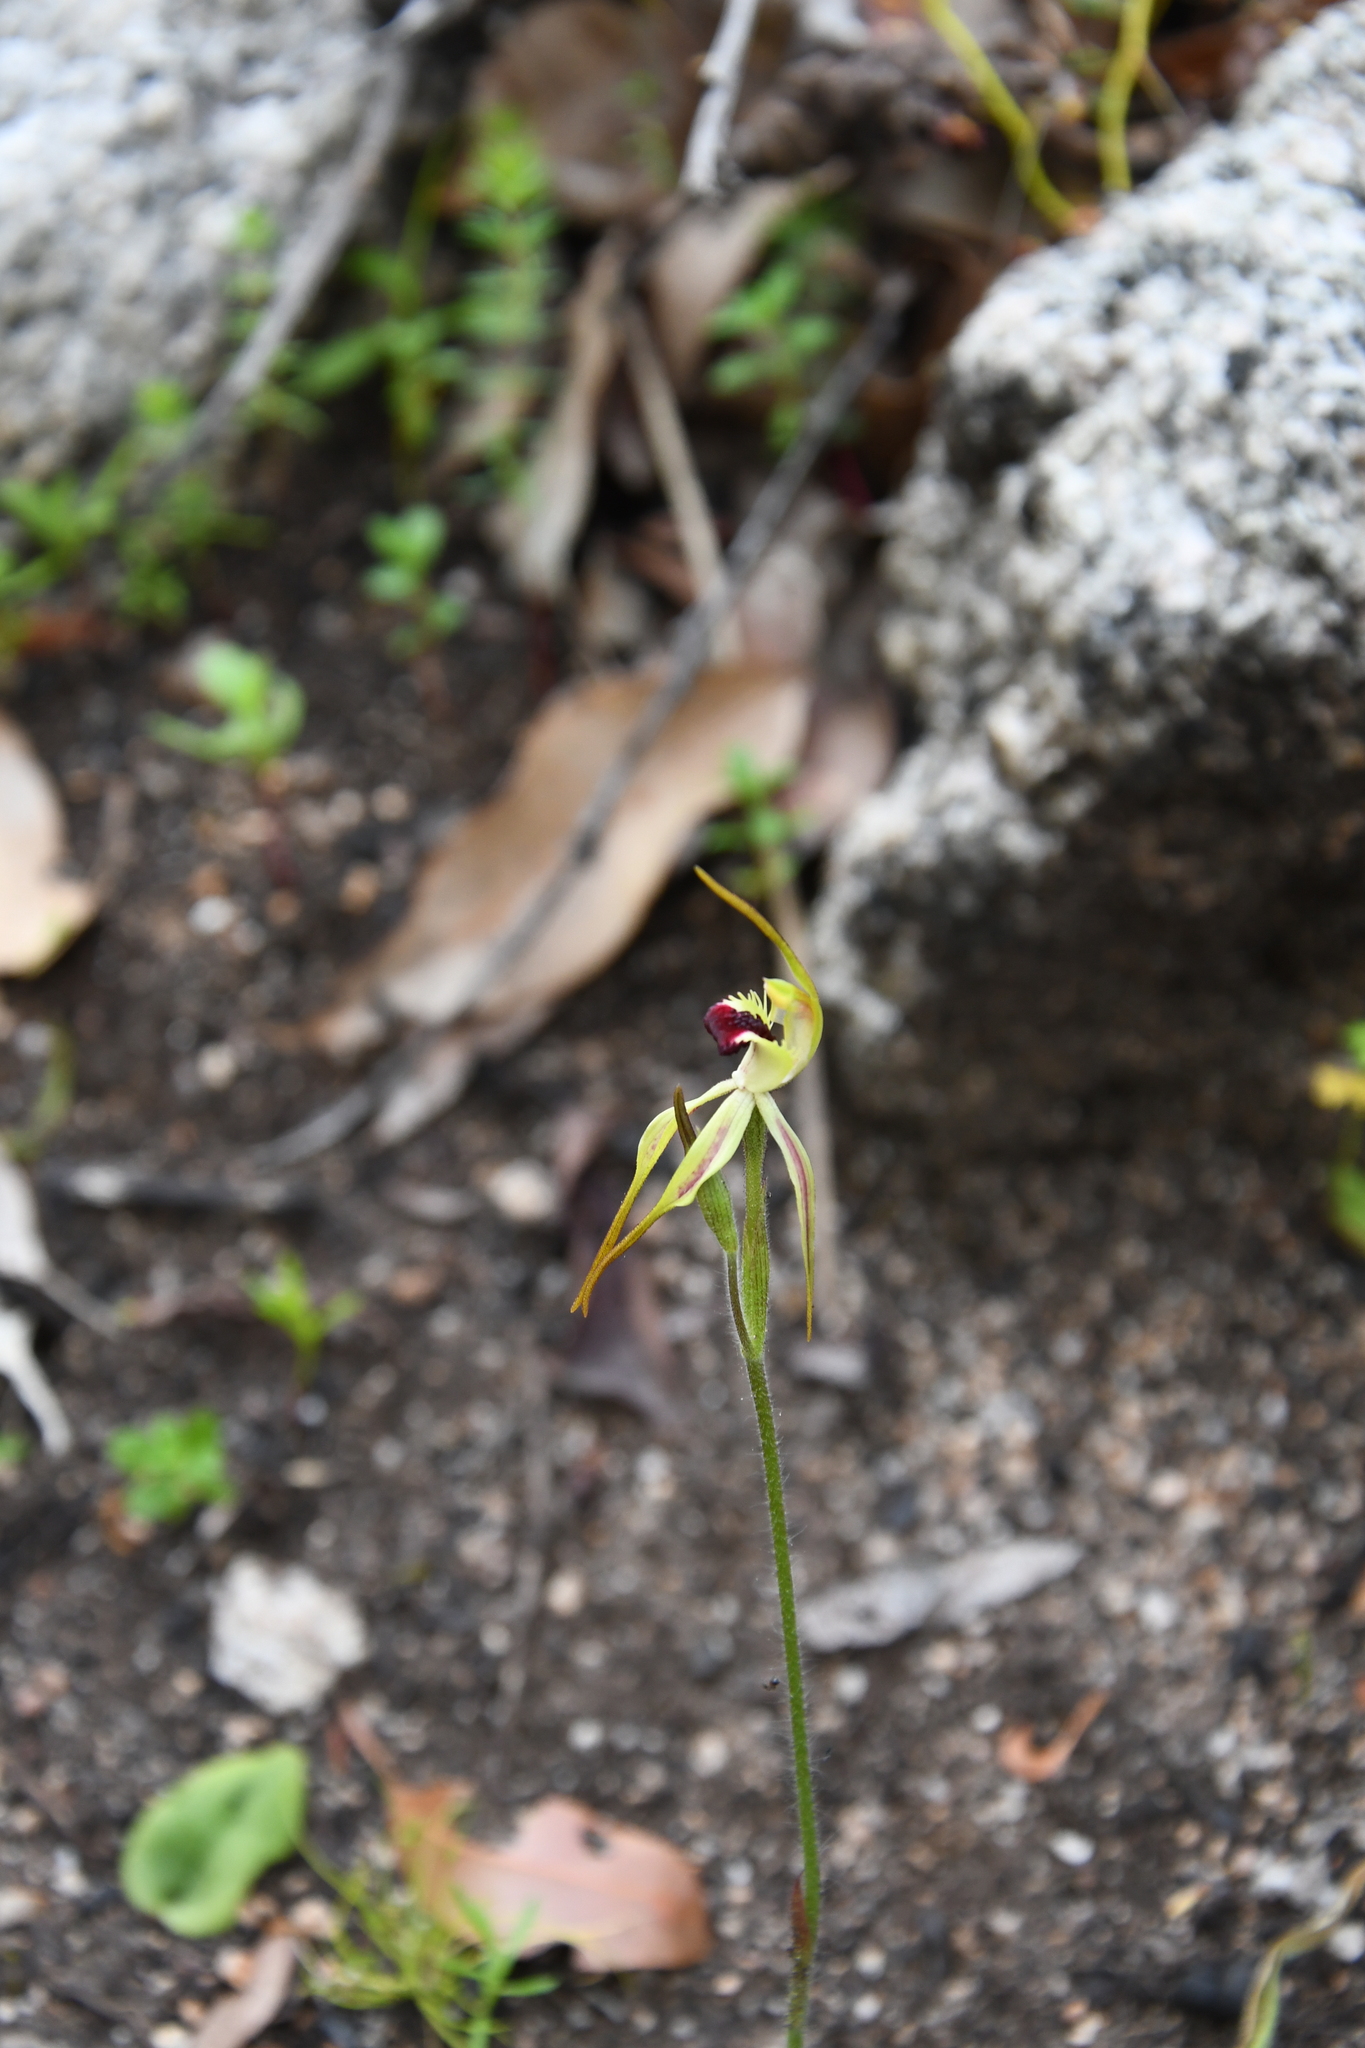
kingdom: Plantae
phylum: Tracheophyta
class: Liliopsida
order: Asparagales
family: Orchidaceae
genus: Caladenia
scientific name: Caladenia longiclavata
